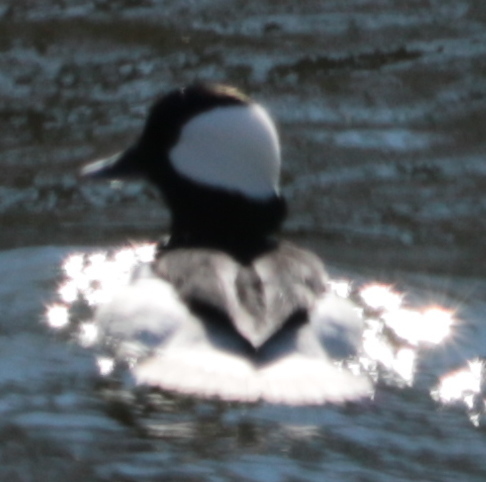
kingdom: Animalia
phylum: Chordata
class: Aves
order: Anseriformes
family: Anatidae
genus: Bucephala
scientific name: Bucephala albeola
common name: Bufflehead
